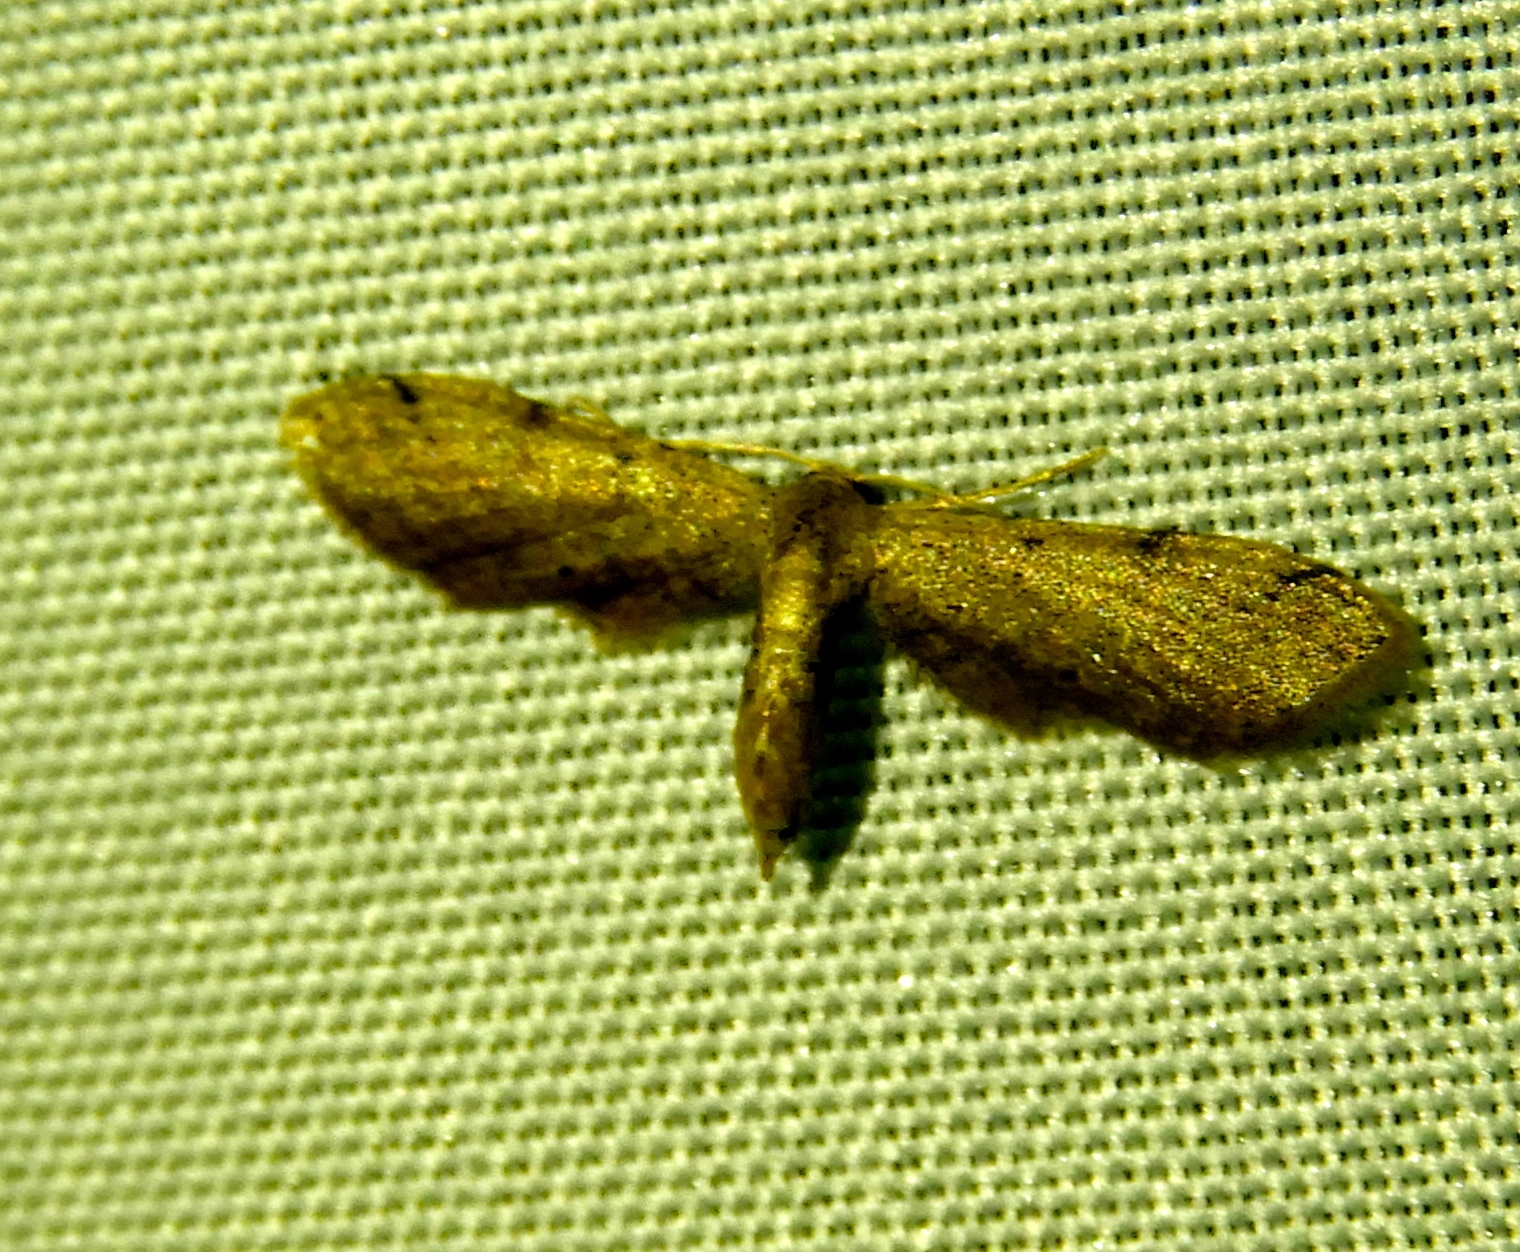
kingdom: Animalia
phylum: Arthropoda
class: Insecta
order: Lepidoptera
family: Geometridae
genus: Euacidalia
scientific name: Euacidalia brownsvillea
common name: Cankerworm
